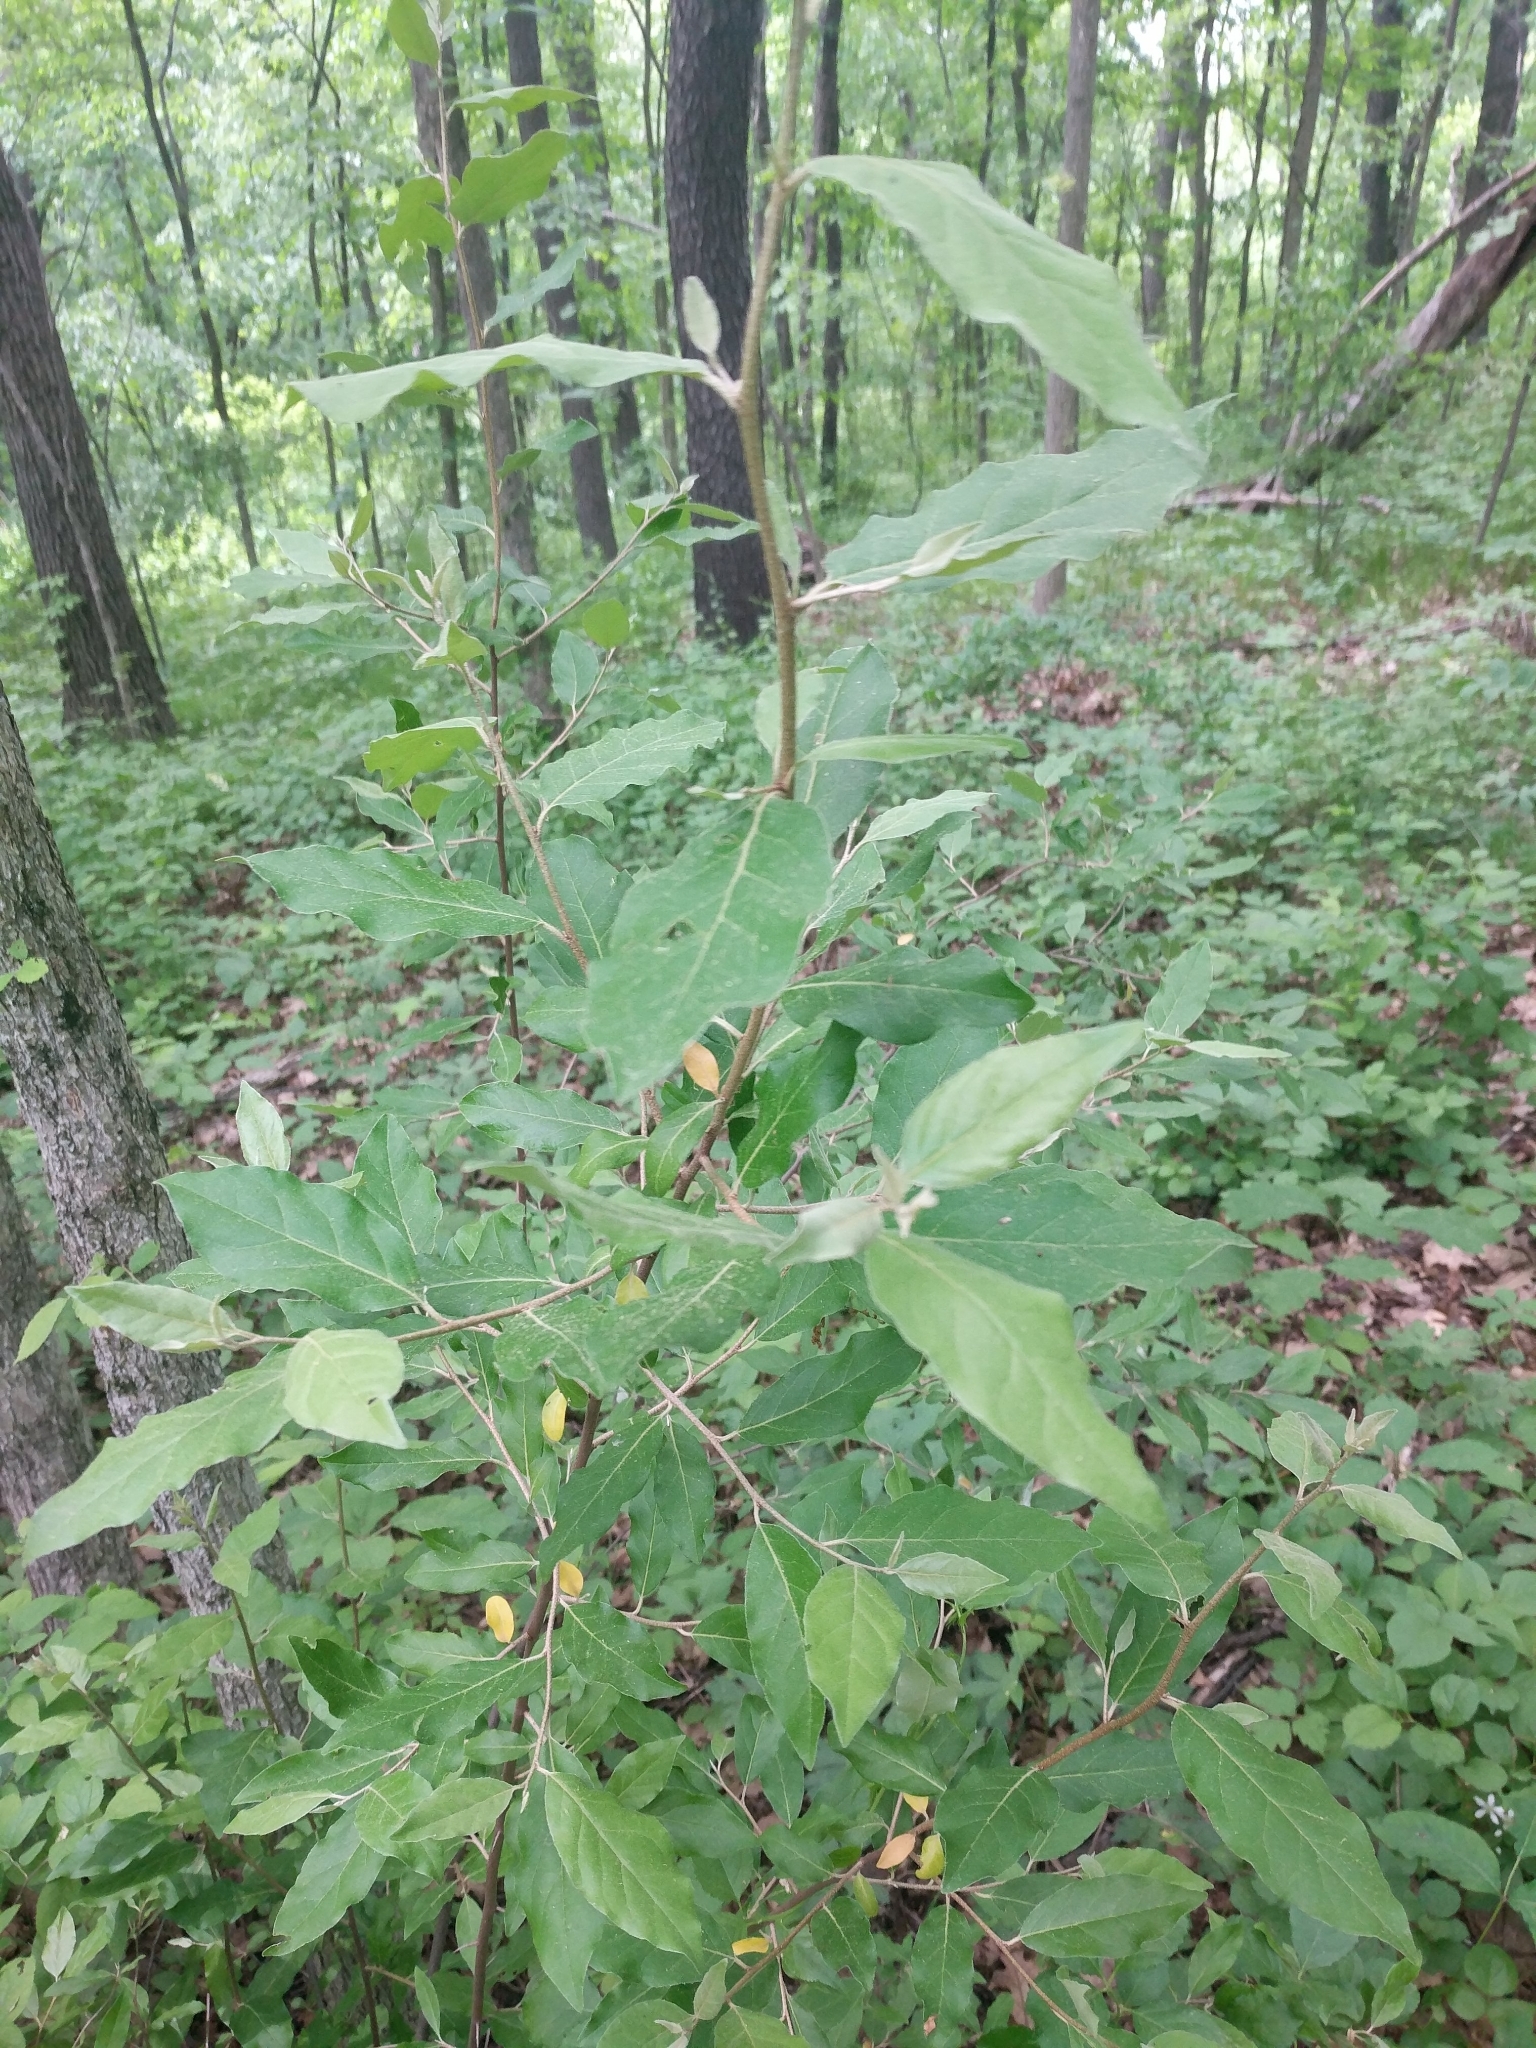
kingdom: Plantae
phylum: Tracheophyta
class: Magnoliopsida
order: Rosales
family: Elaeagnaceae
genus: Elaeagnus
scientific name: Elaeagnus umbellata
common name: Autumn olive
